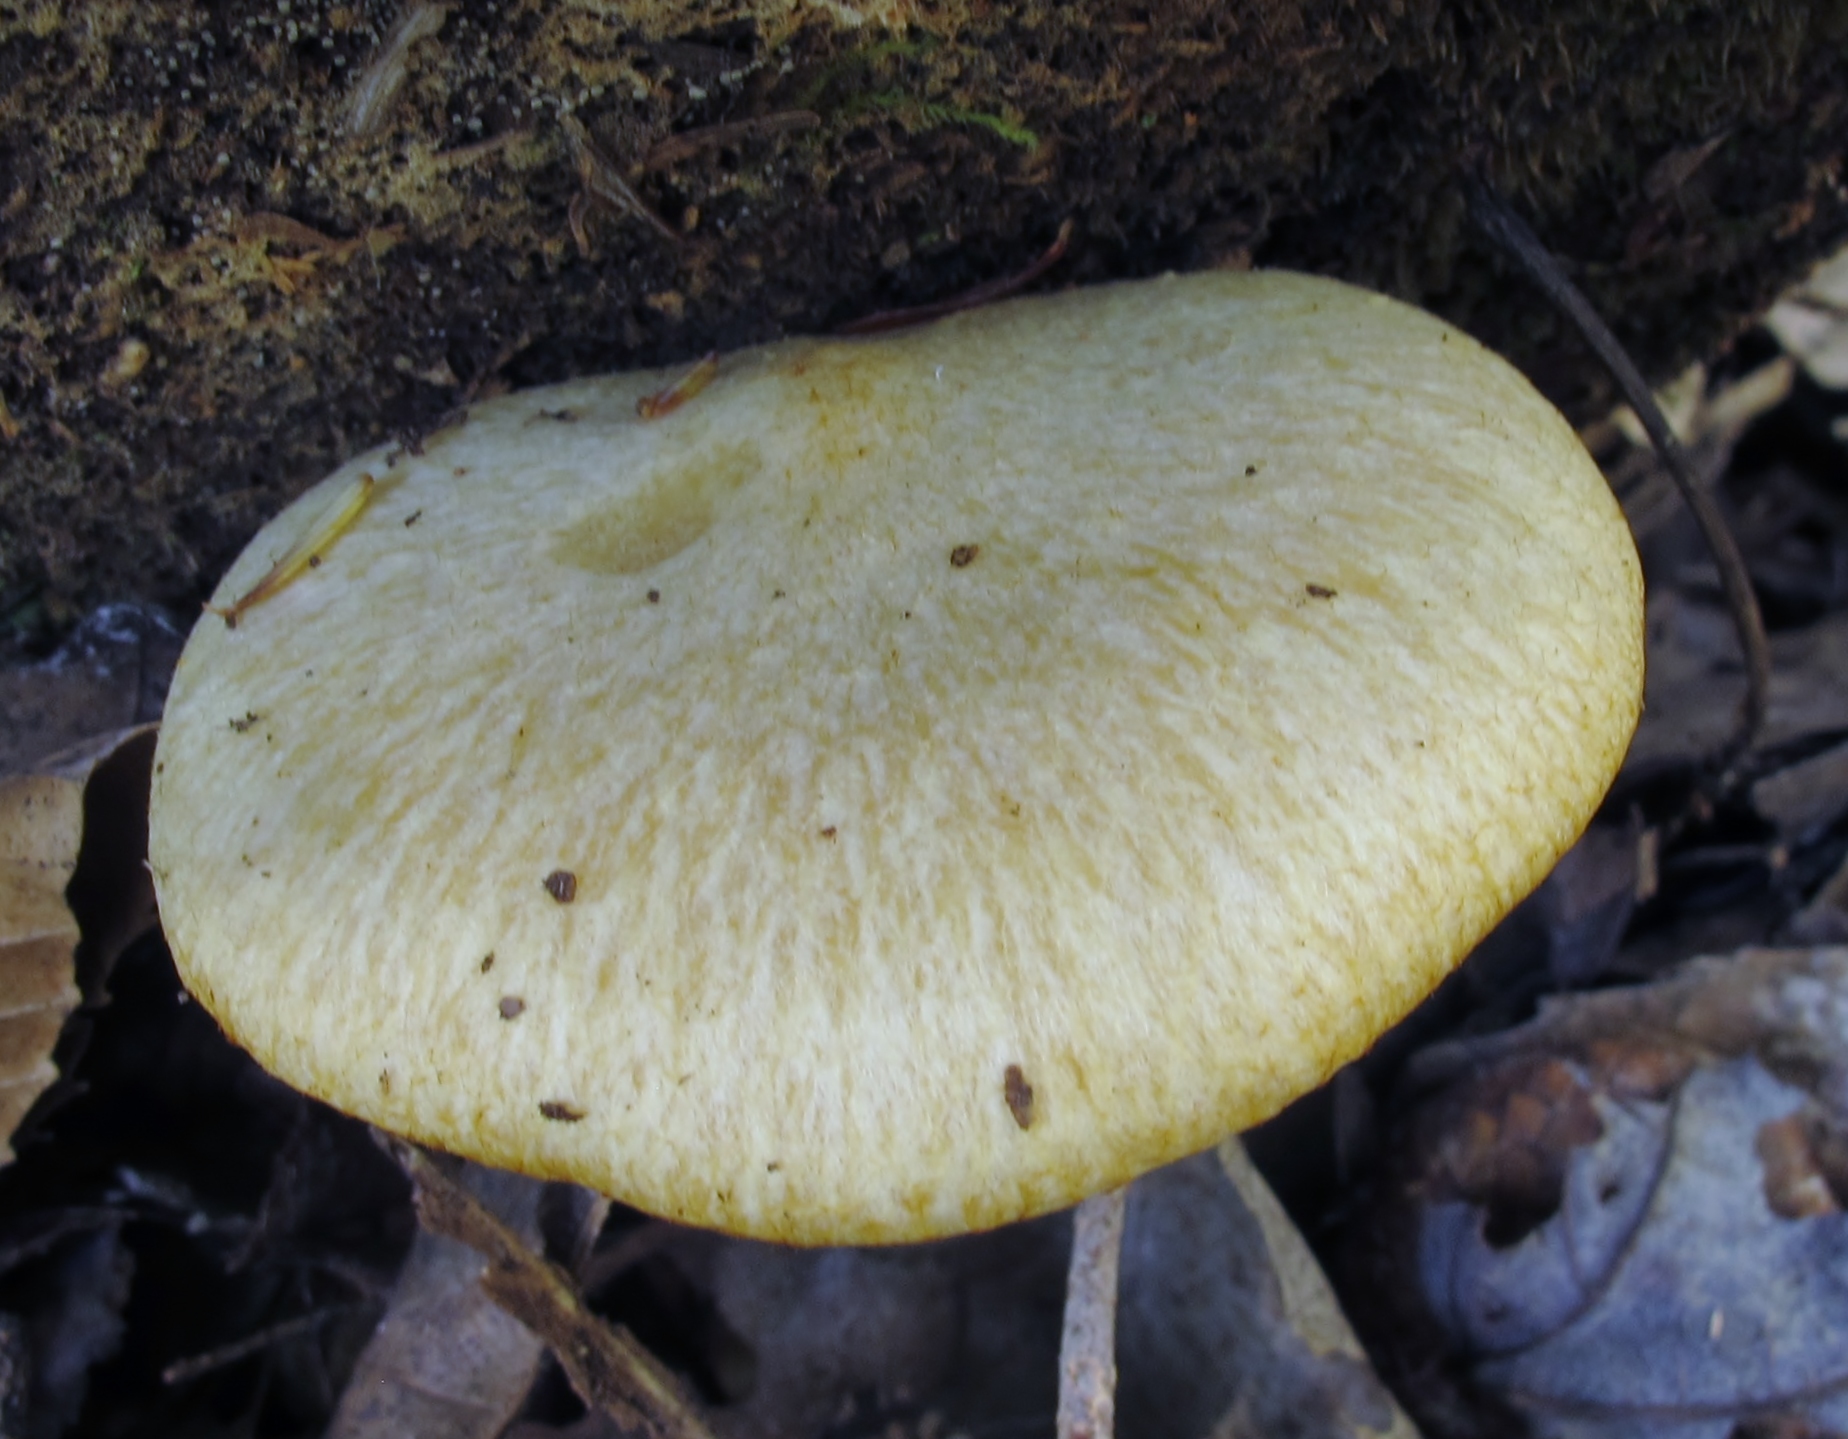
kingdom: Fungi
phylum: Basidiomycota
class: Agaricomycetes
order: Agaricales
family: Tricholomataceae
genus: Tricholomopsis
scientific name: Tricholomopsis sulfureoides
